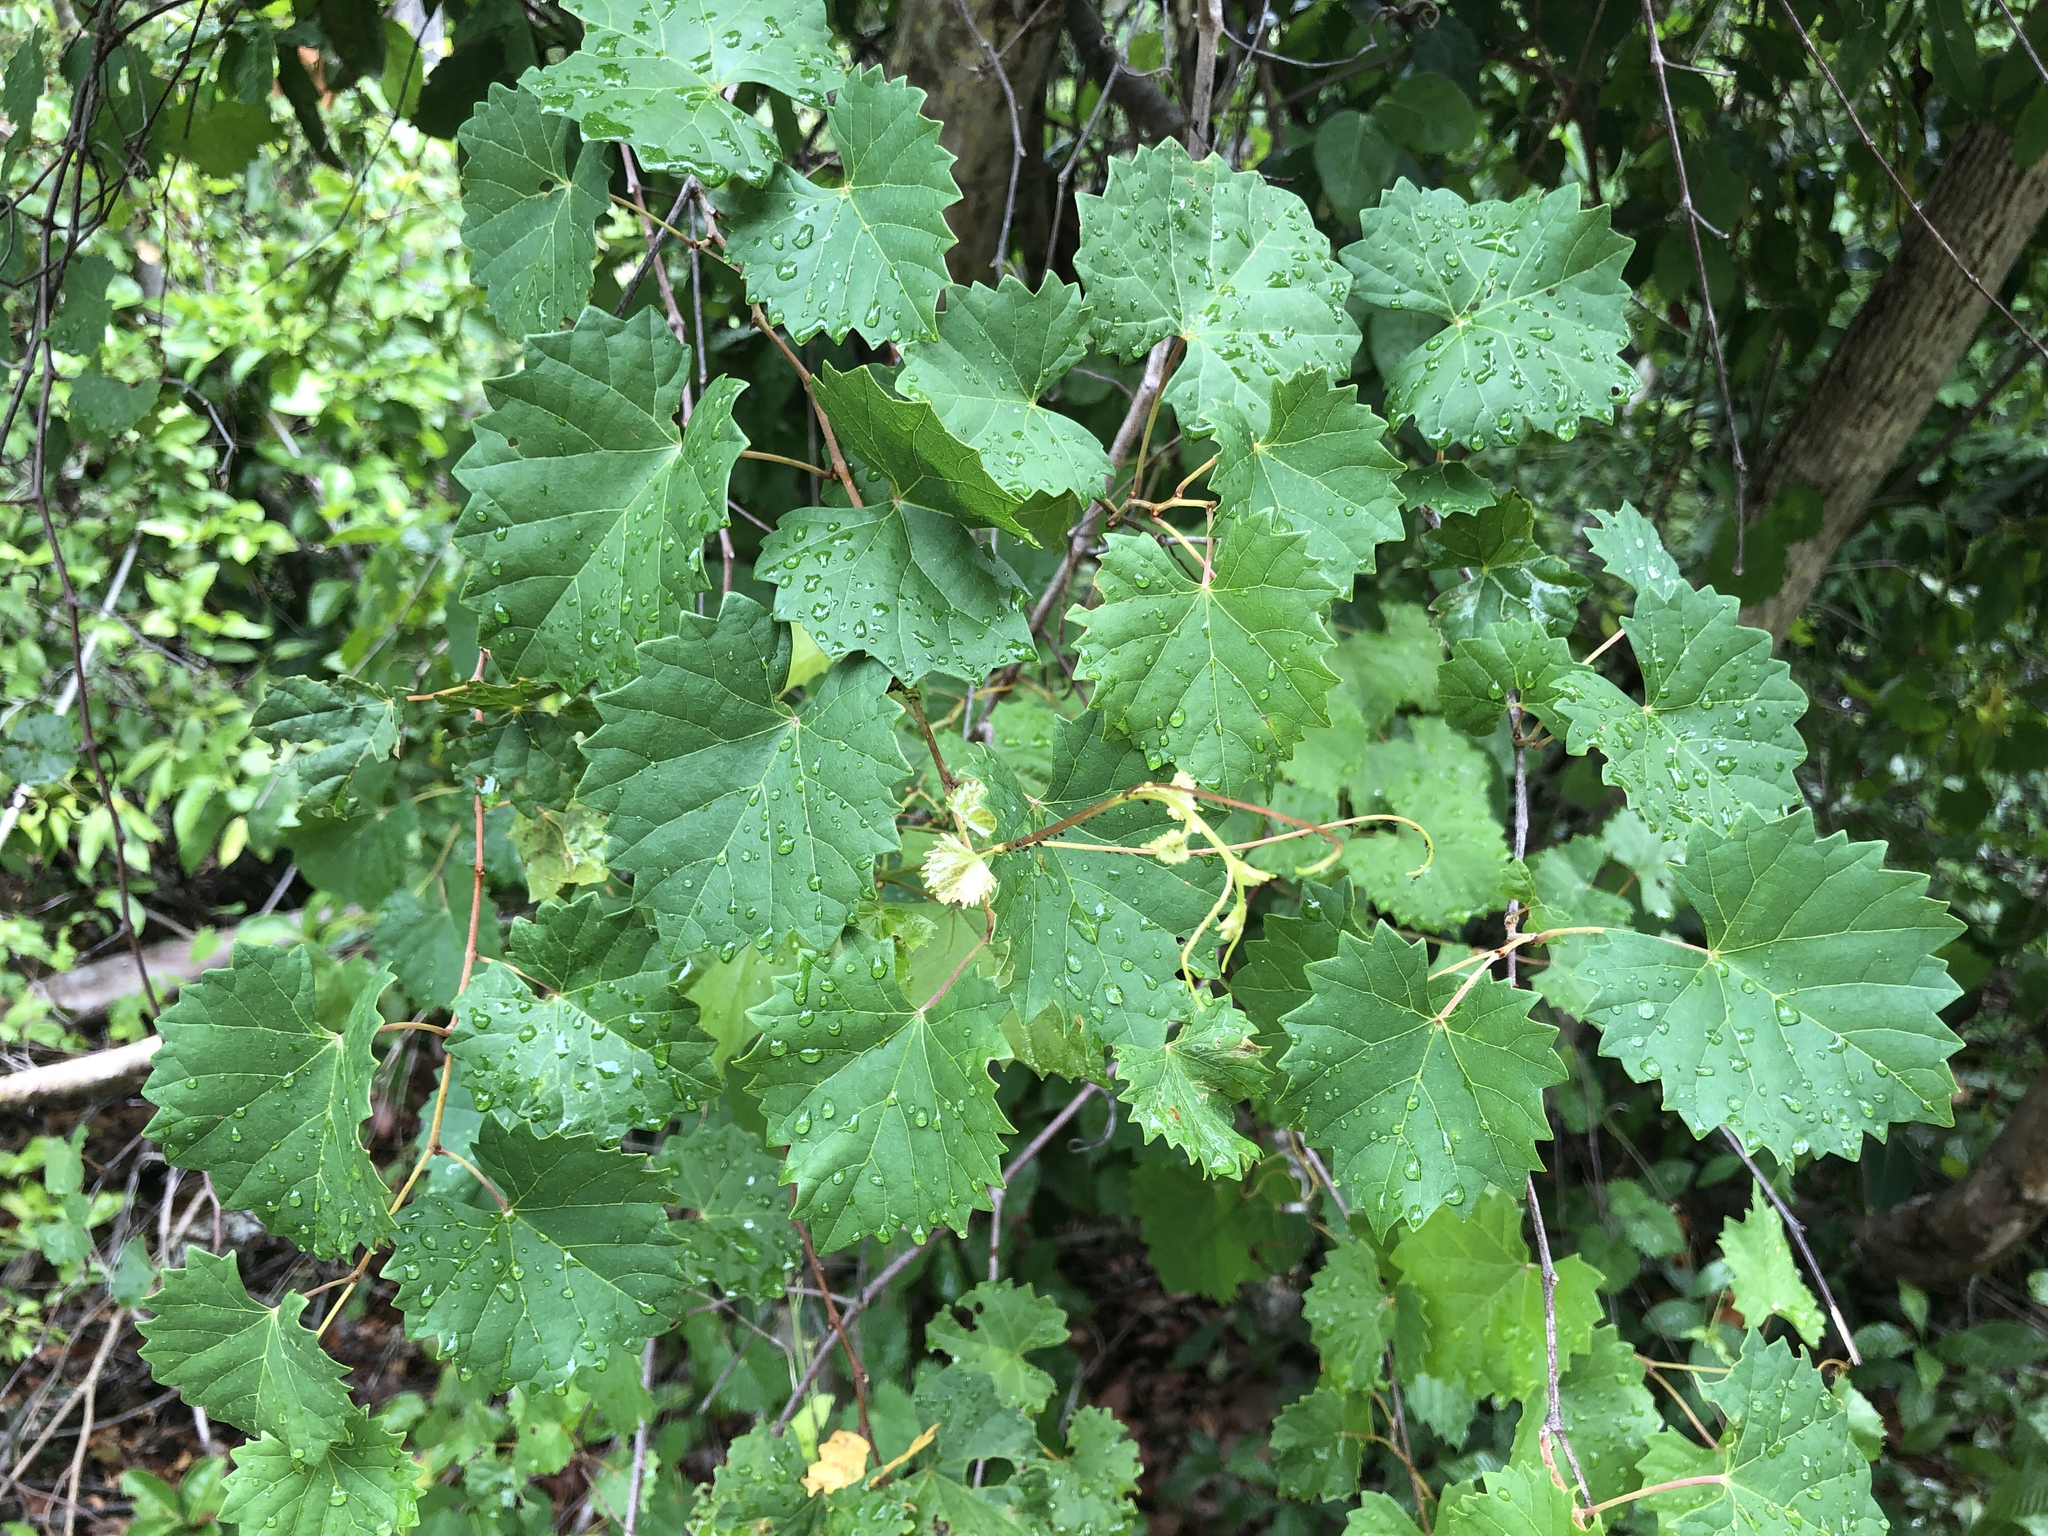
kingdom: Plantae
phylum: Tracheophyta
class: Magnoliopsida
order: Vitales
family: Vitaceae
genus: Vitis
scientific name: Vitis rotundifolia
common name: Muscadine grape
